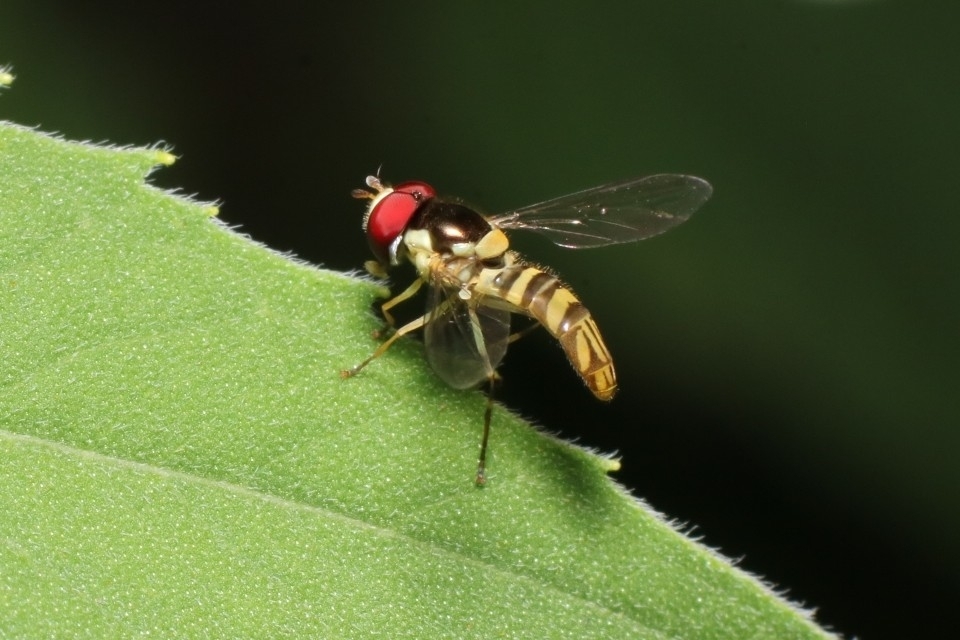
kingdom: Animalia
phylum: Arthropoda
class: Insecta
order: Diptera
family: Syrphidae
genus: Allograpta
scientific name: Allograpta obliqua
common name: Common oblique syrphid
